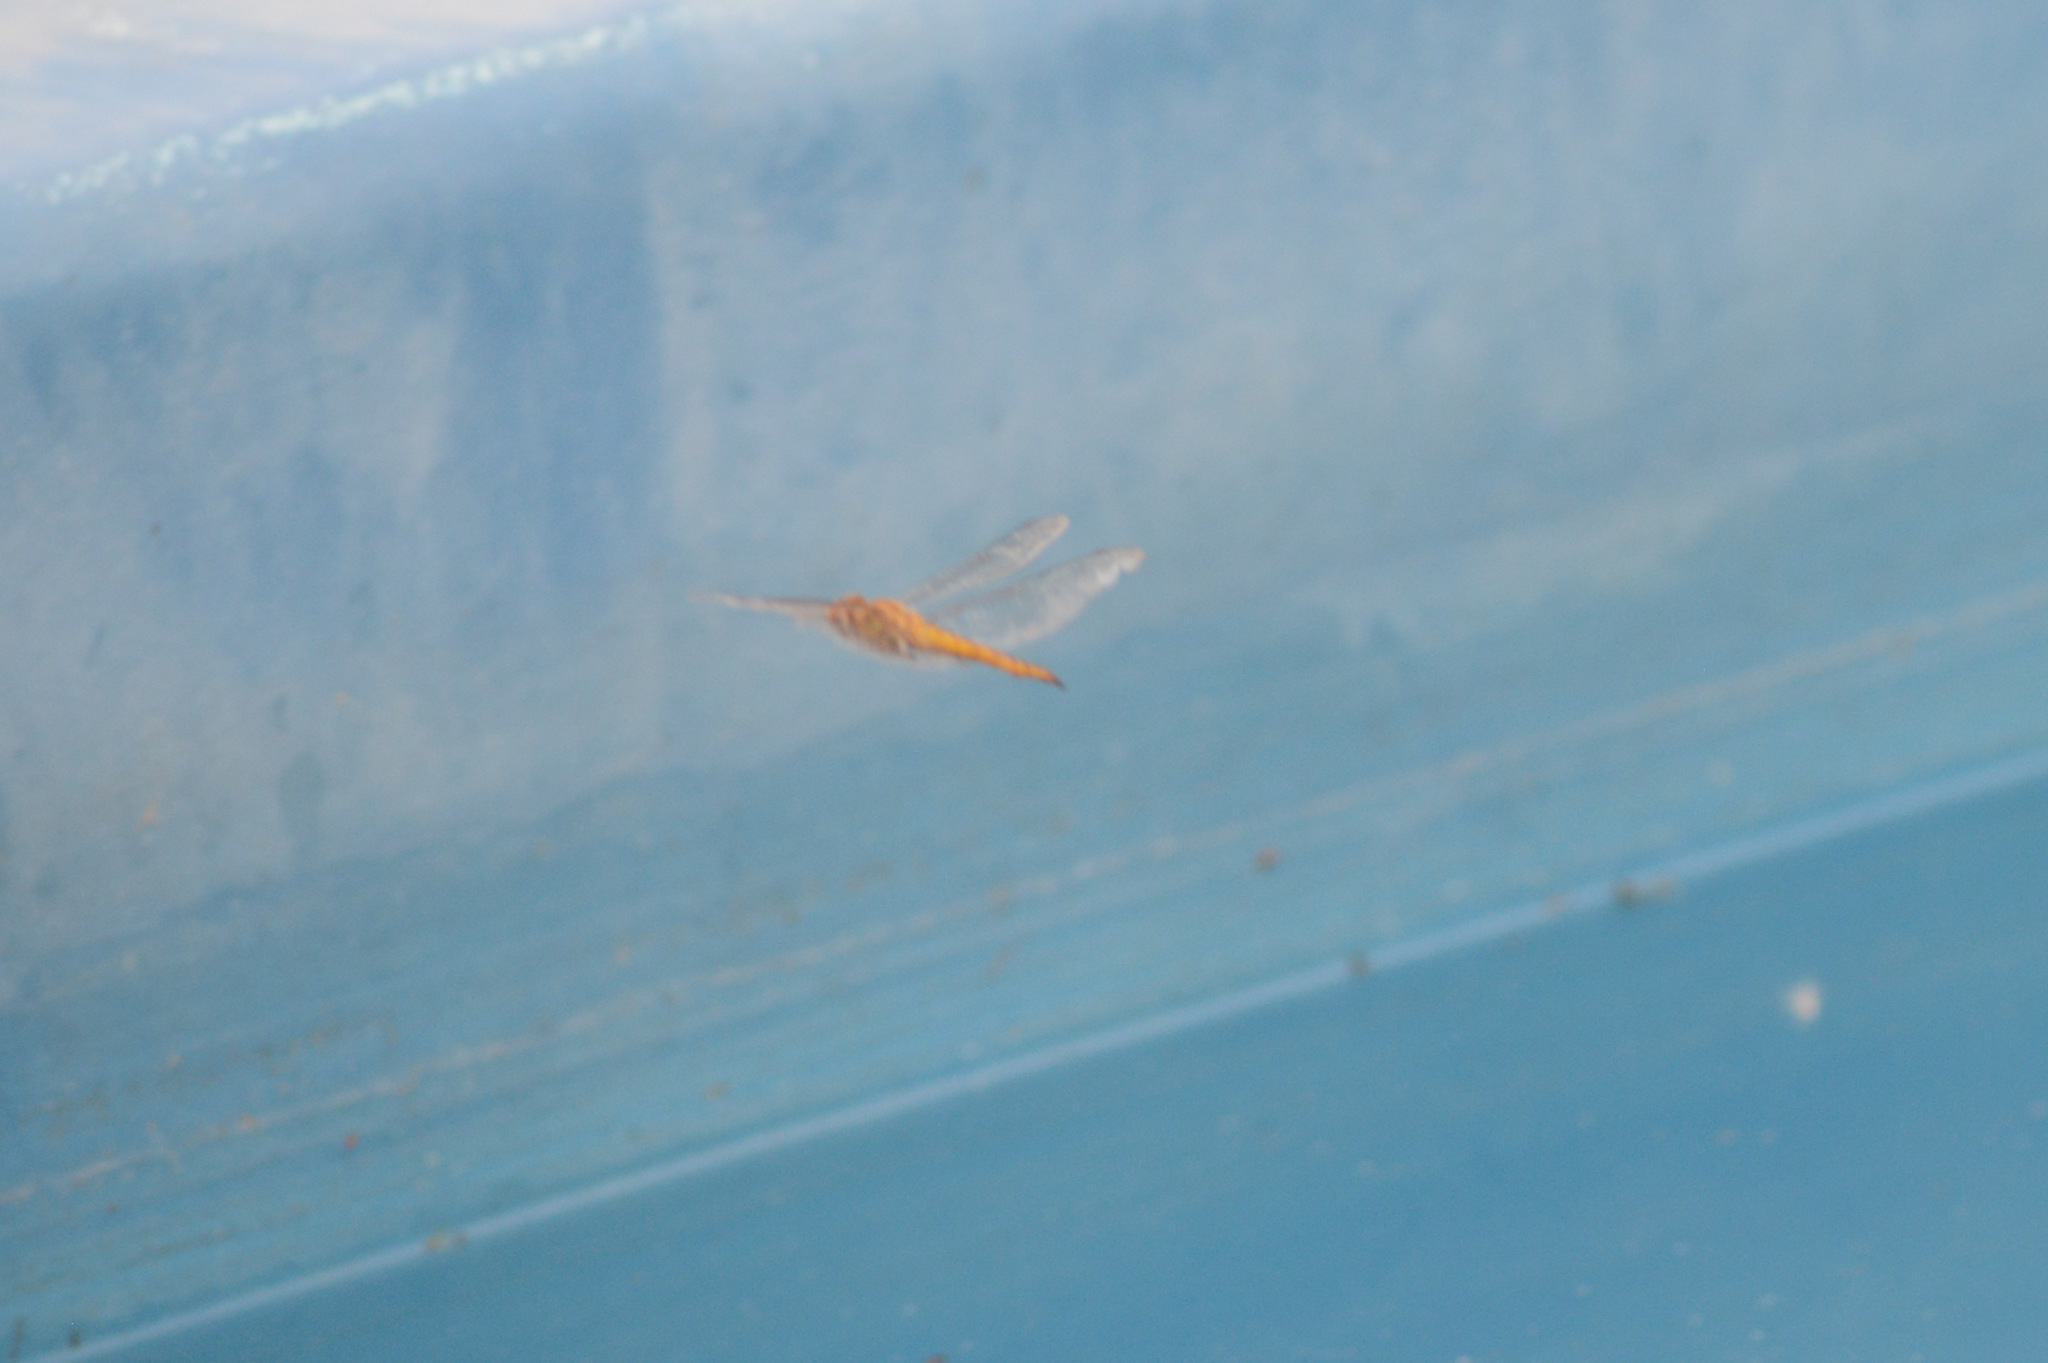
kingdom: Animalia
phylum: Arthropoda
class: Insecta
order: Odonata
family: Libellulidae
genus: Pantala
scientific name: Pantala flavescens
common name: Wandering glider
